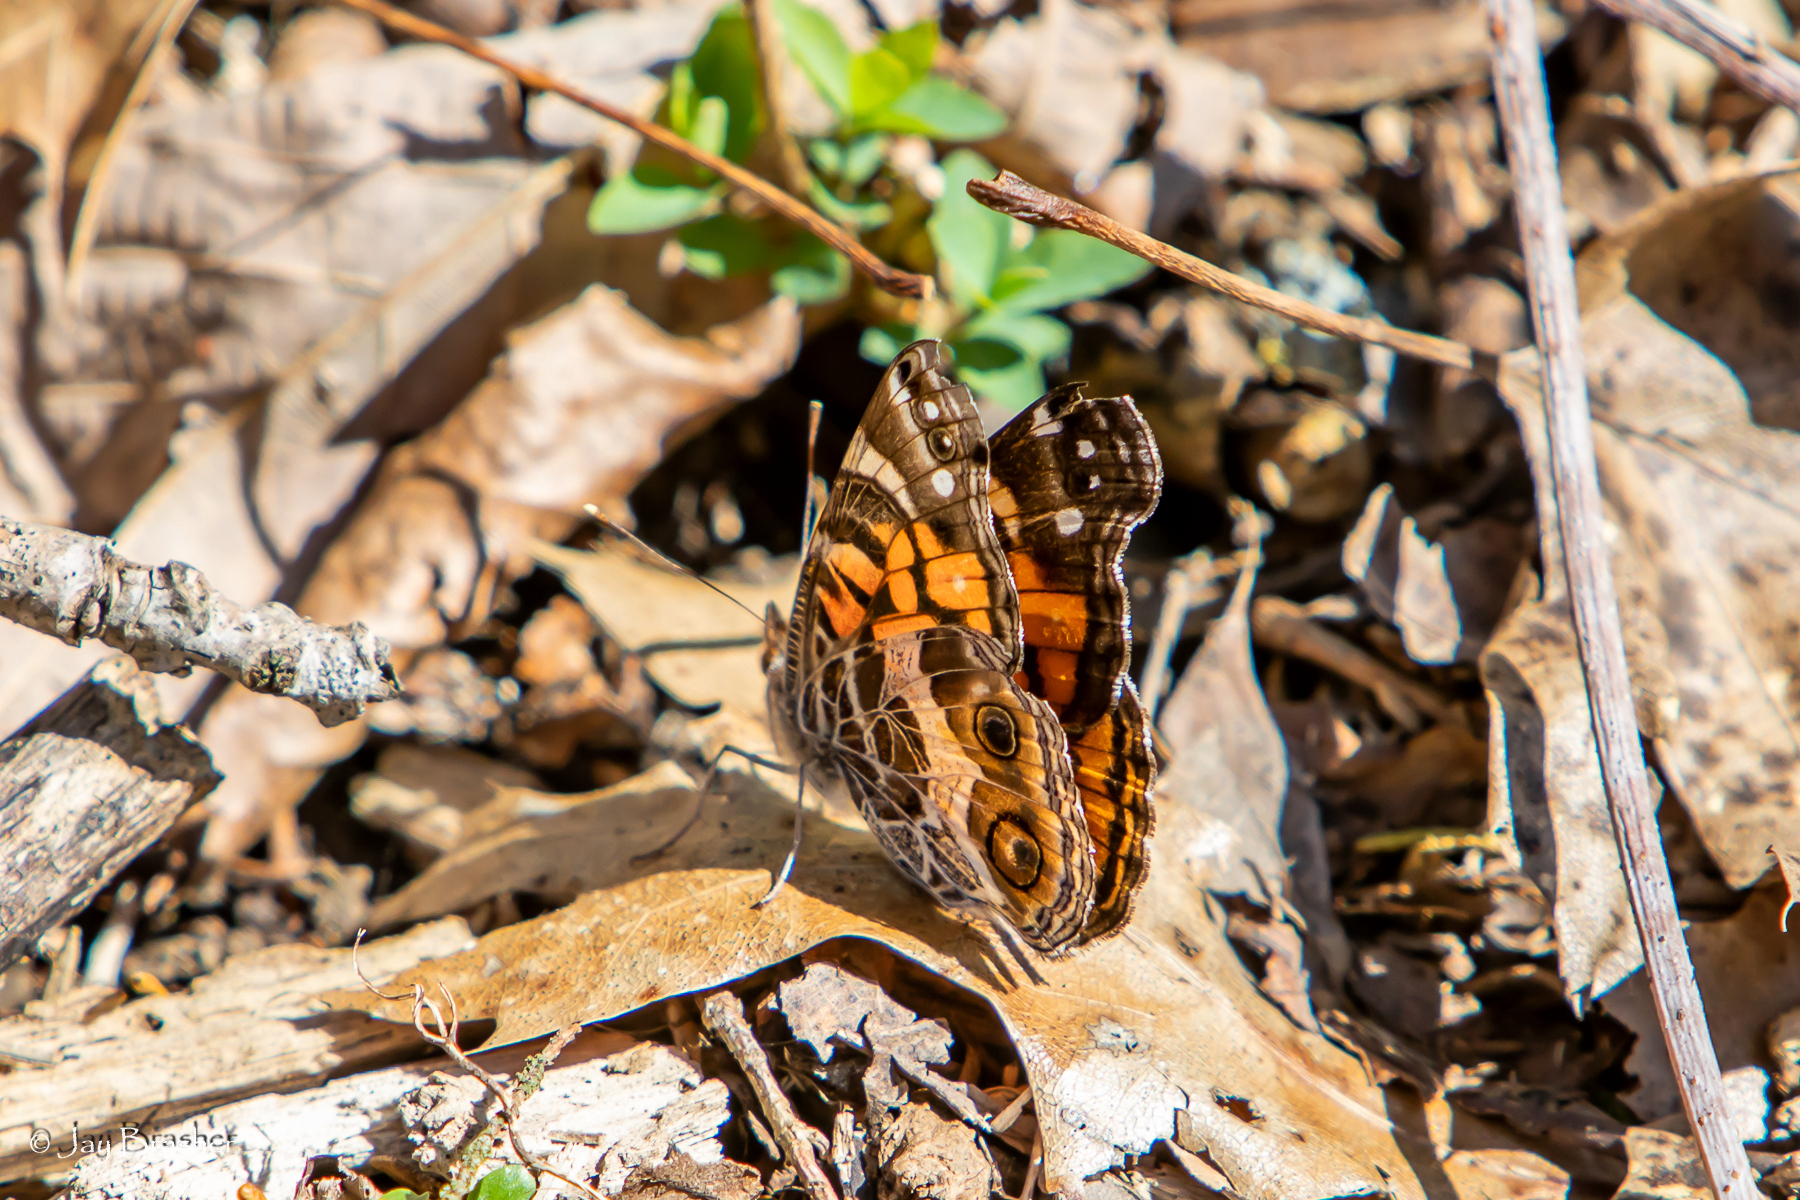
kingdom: Animalia
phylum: Arthropoda
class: Insecta
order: Lepidoptera
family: Nymphalidae
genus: Vanessa
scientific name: Vanessa virginiensis
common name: American lady
